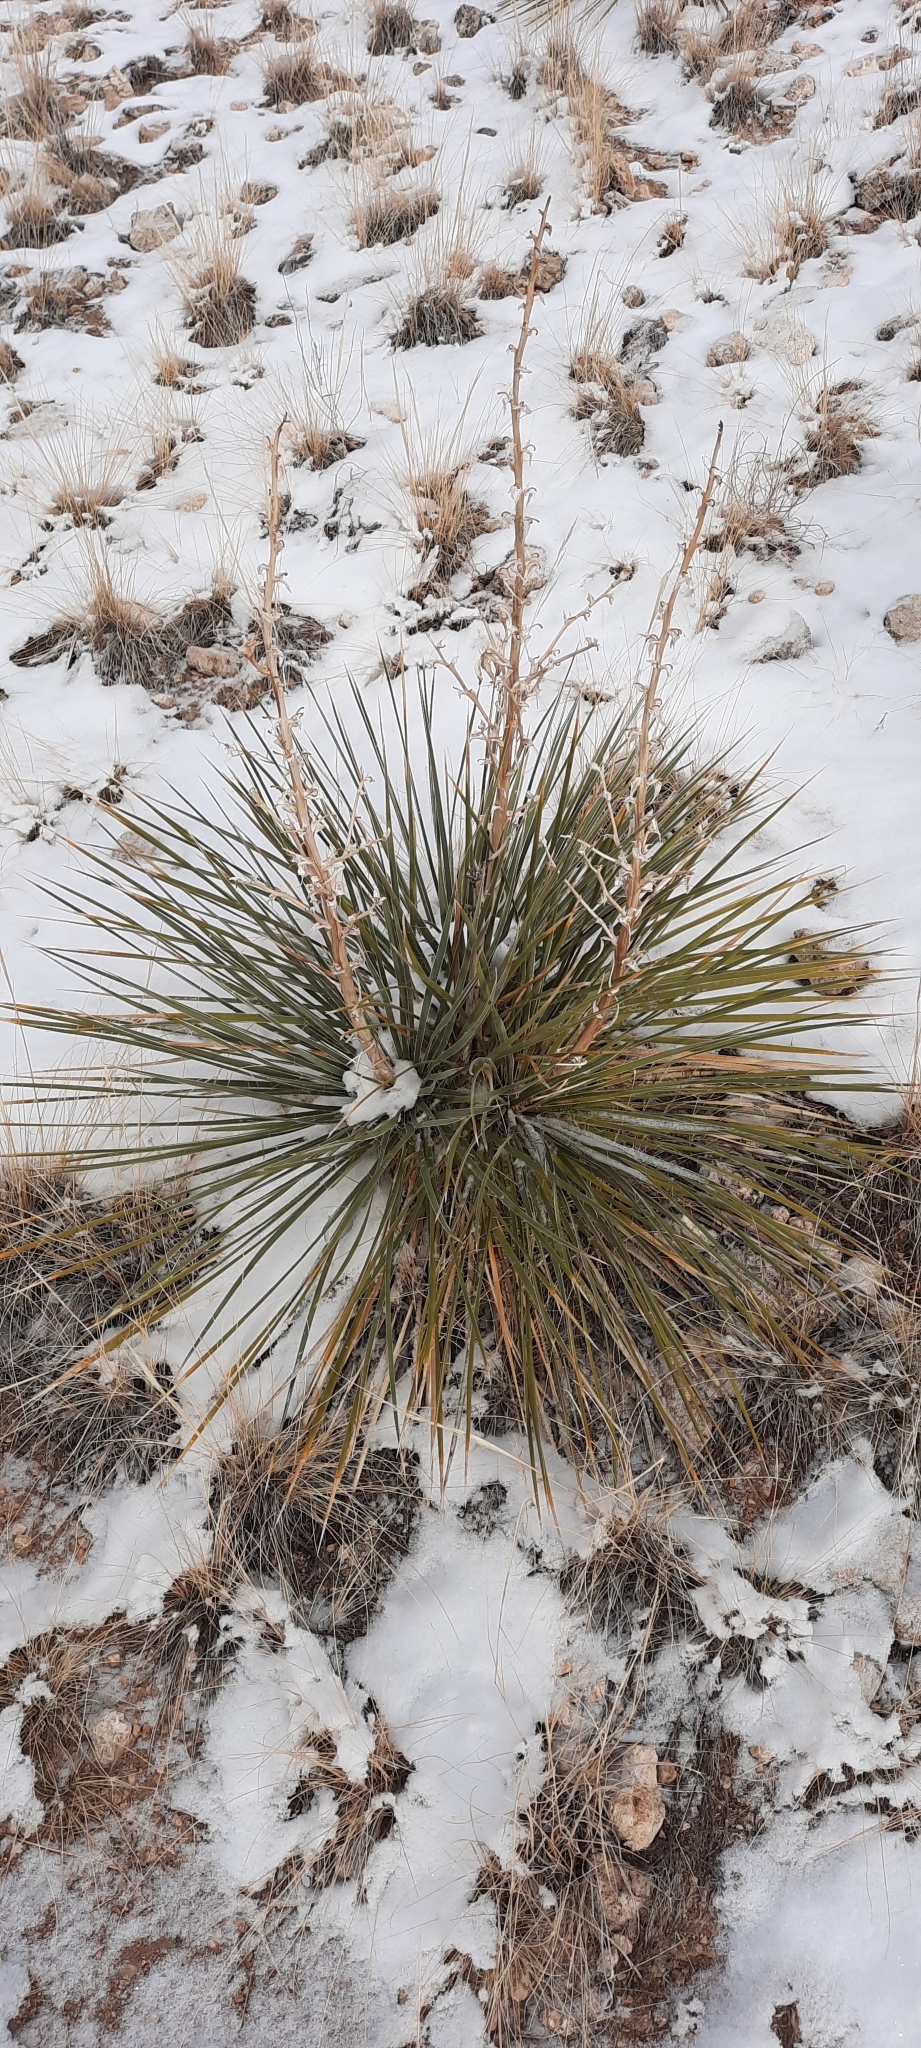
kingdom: Plantae
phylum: Tracheophyta
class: Liliopsida
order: Asparagales
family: Asparagaceae
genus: Yucca
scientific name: Yucca glauca
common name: Great plains yucca
